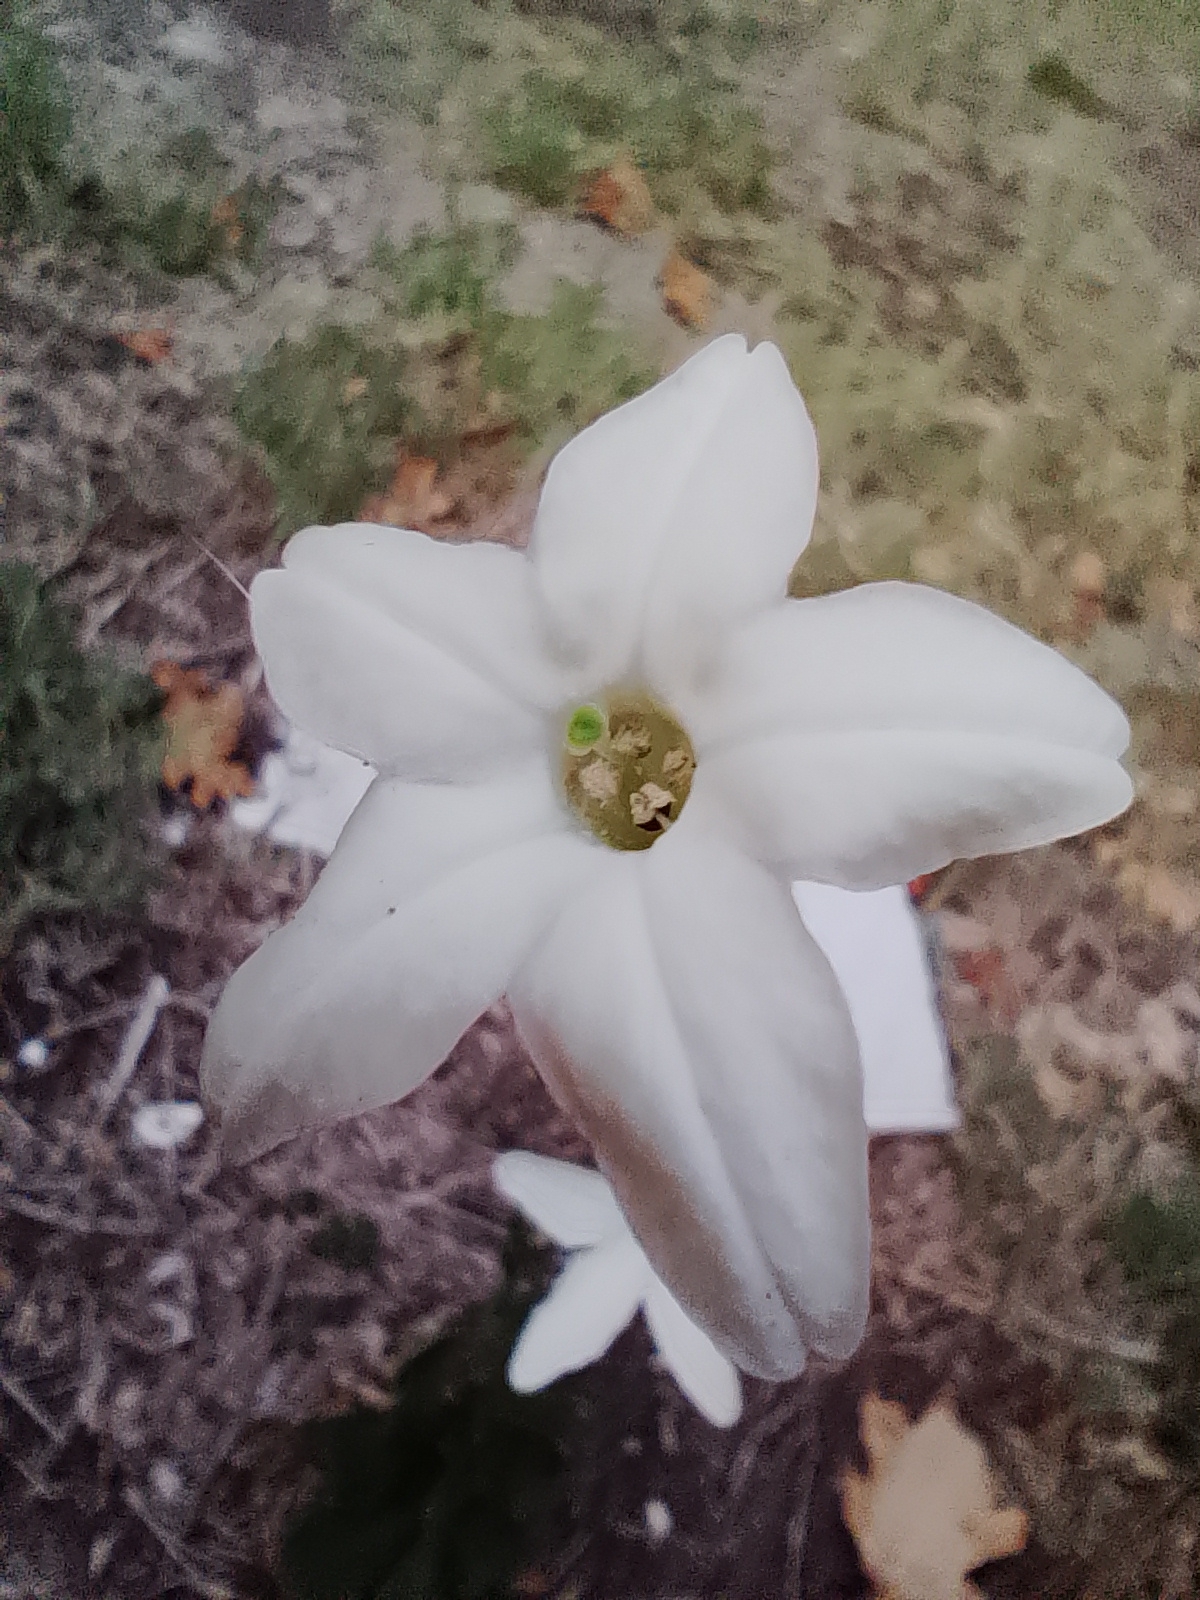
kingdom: Plantae
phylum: Tracheophyta
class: Magnoliopsida
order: Solanales
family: Solanaceae
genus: Nicotiana
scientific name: Nicotiana longiflora
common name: Long-flowered tobacco
